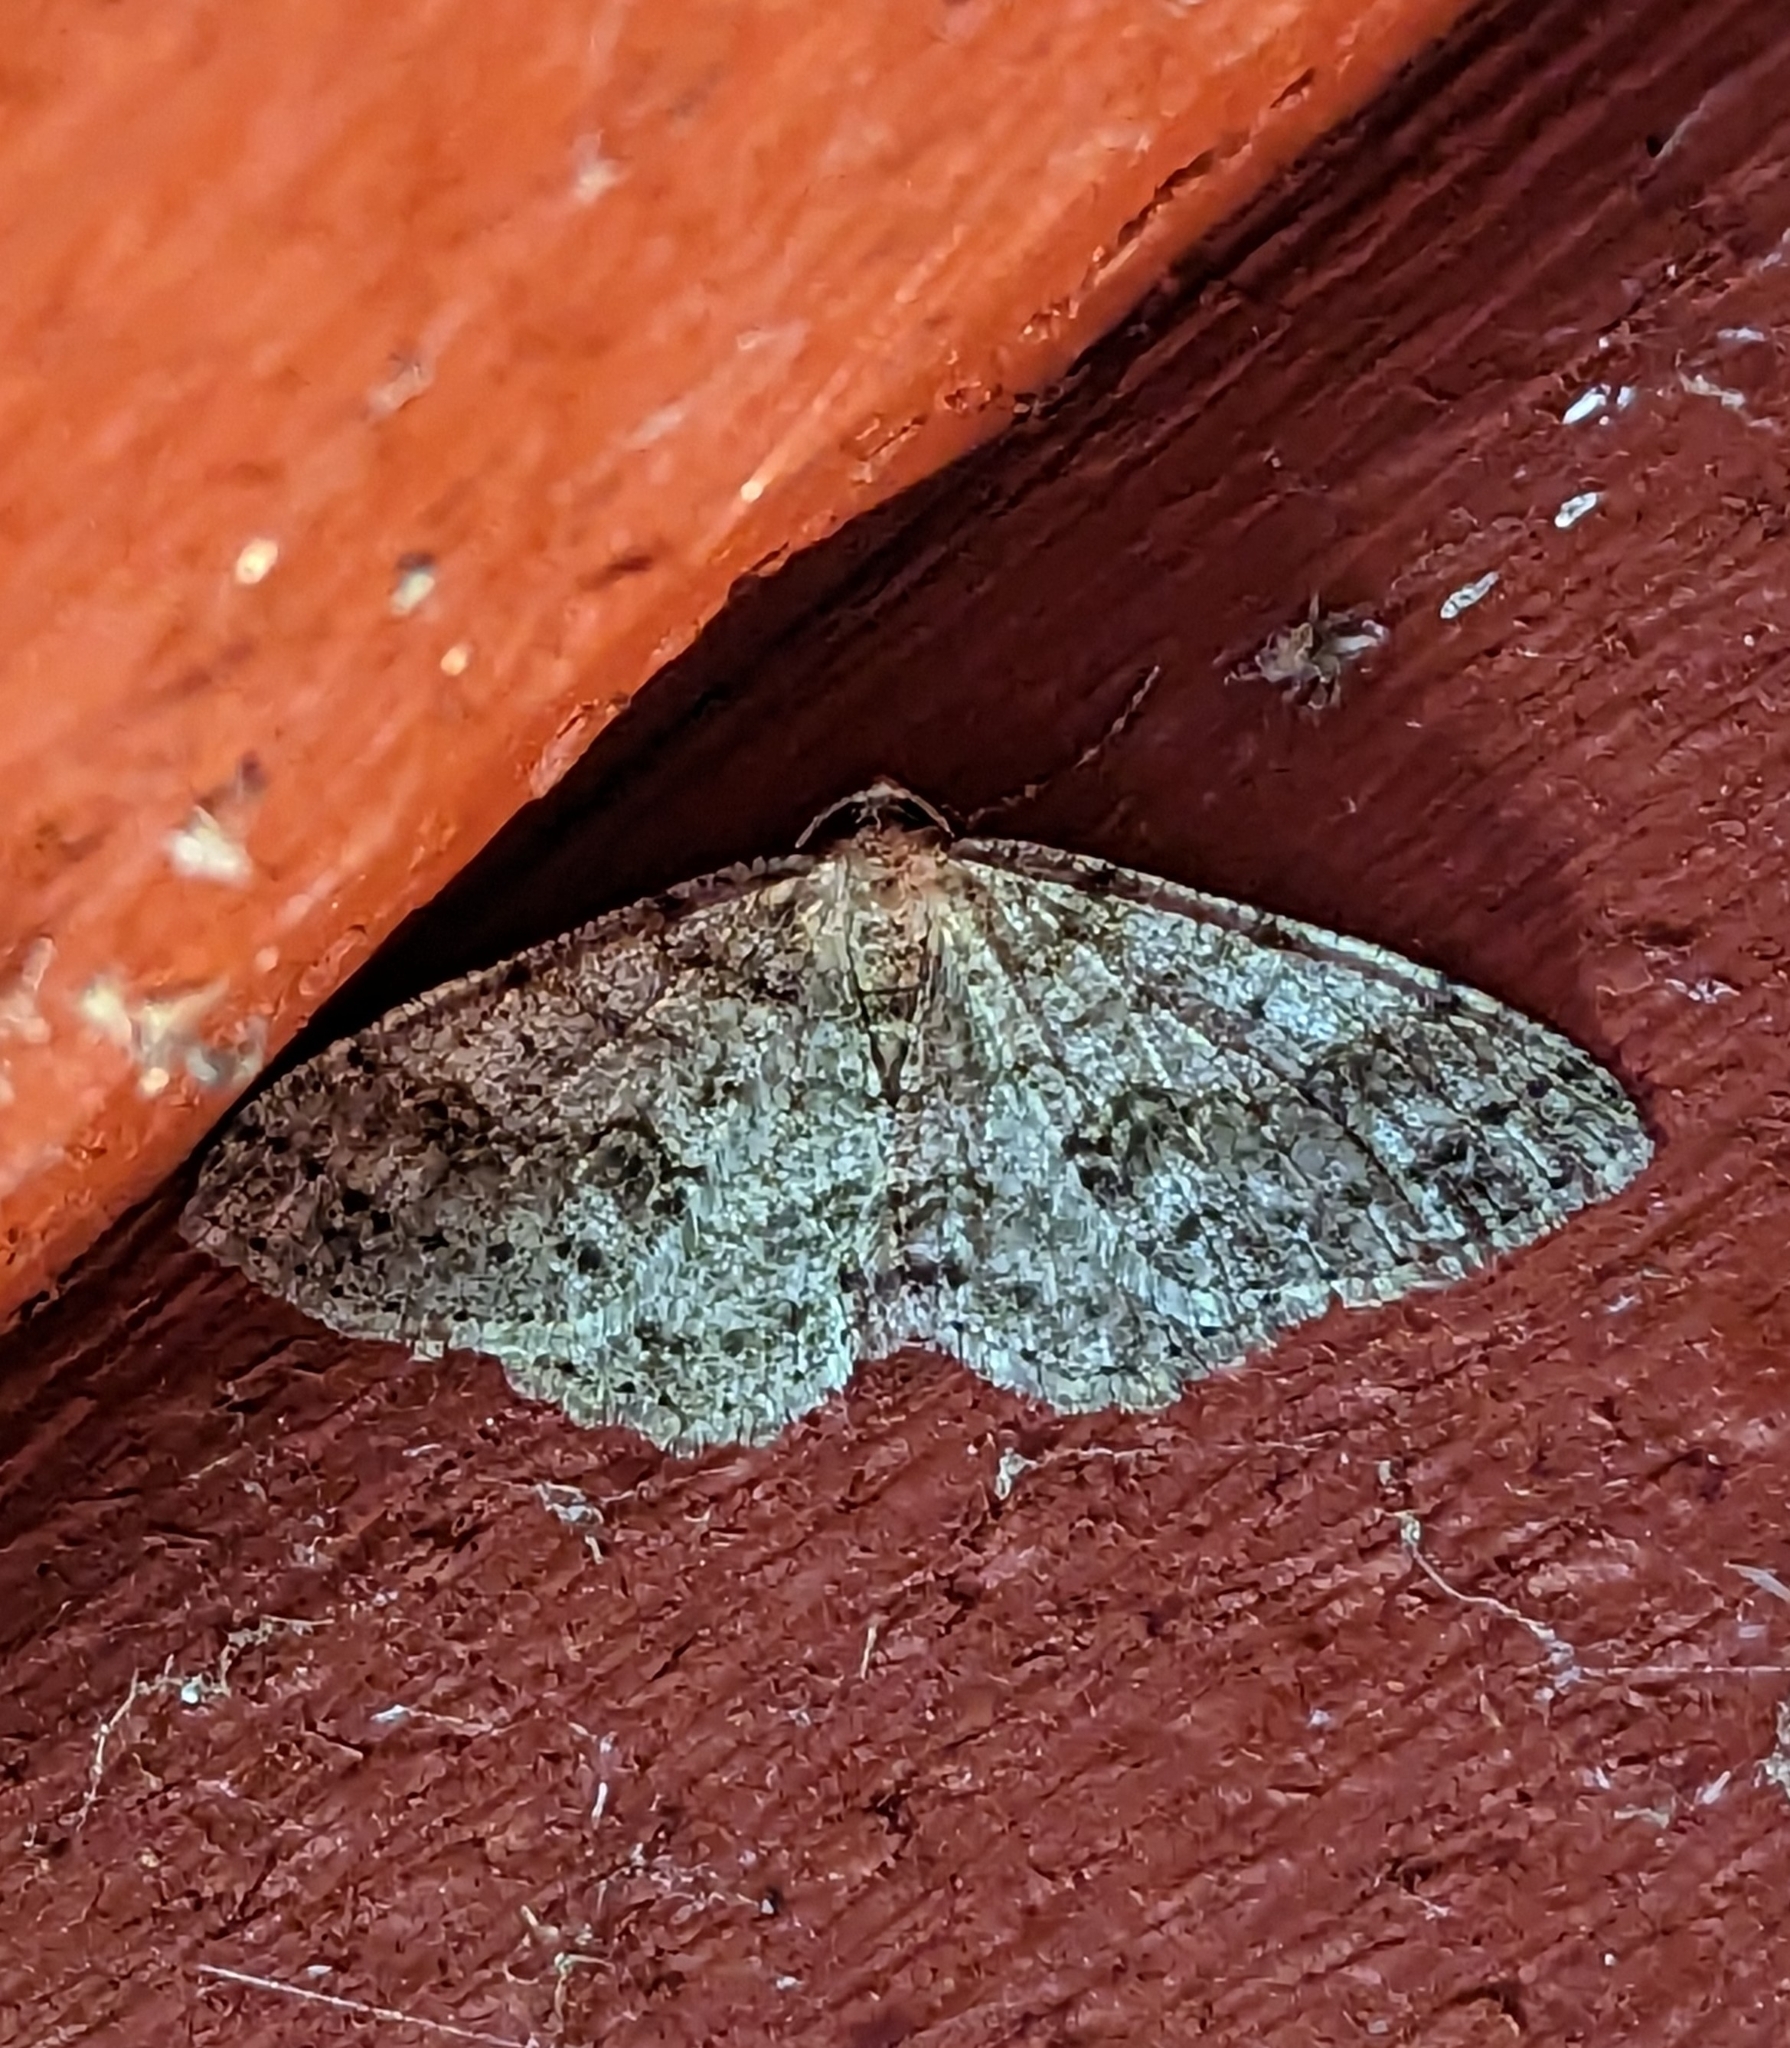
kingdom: Animalia
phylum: Arthropoda
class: Insecta
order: Lepidoptera
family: Geometridae
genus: Melanolophia
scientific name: Melanolophia imitata
